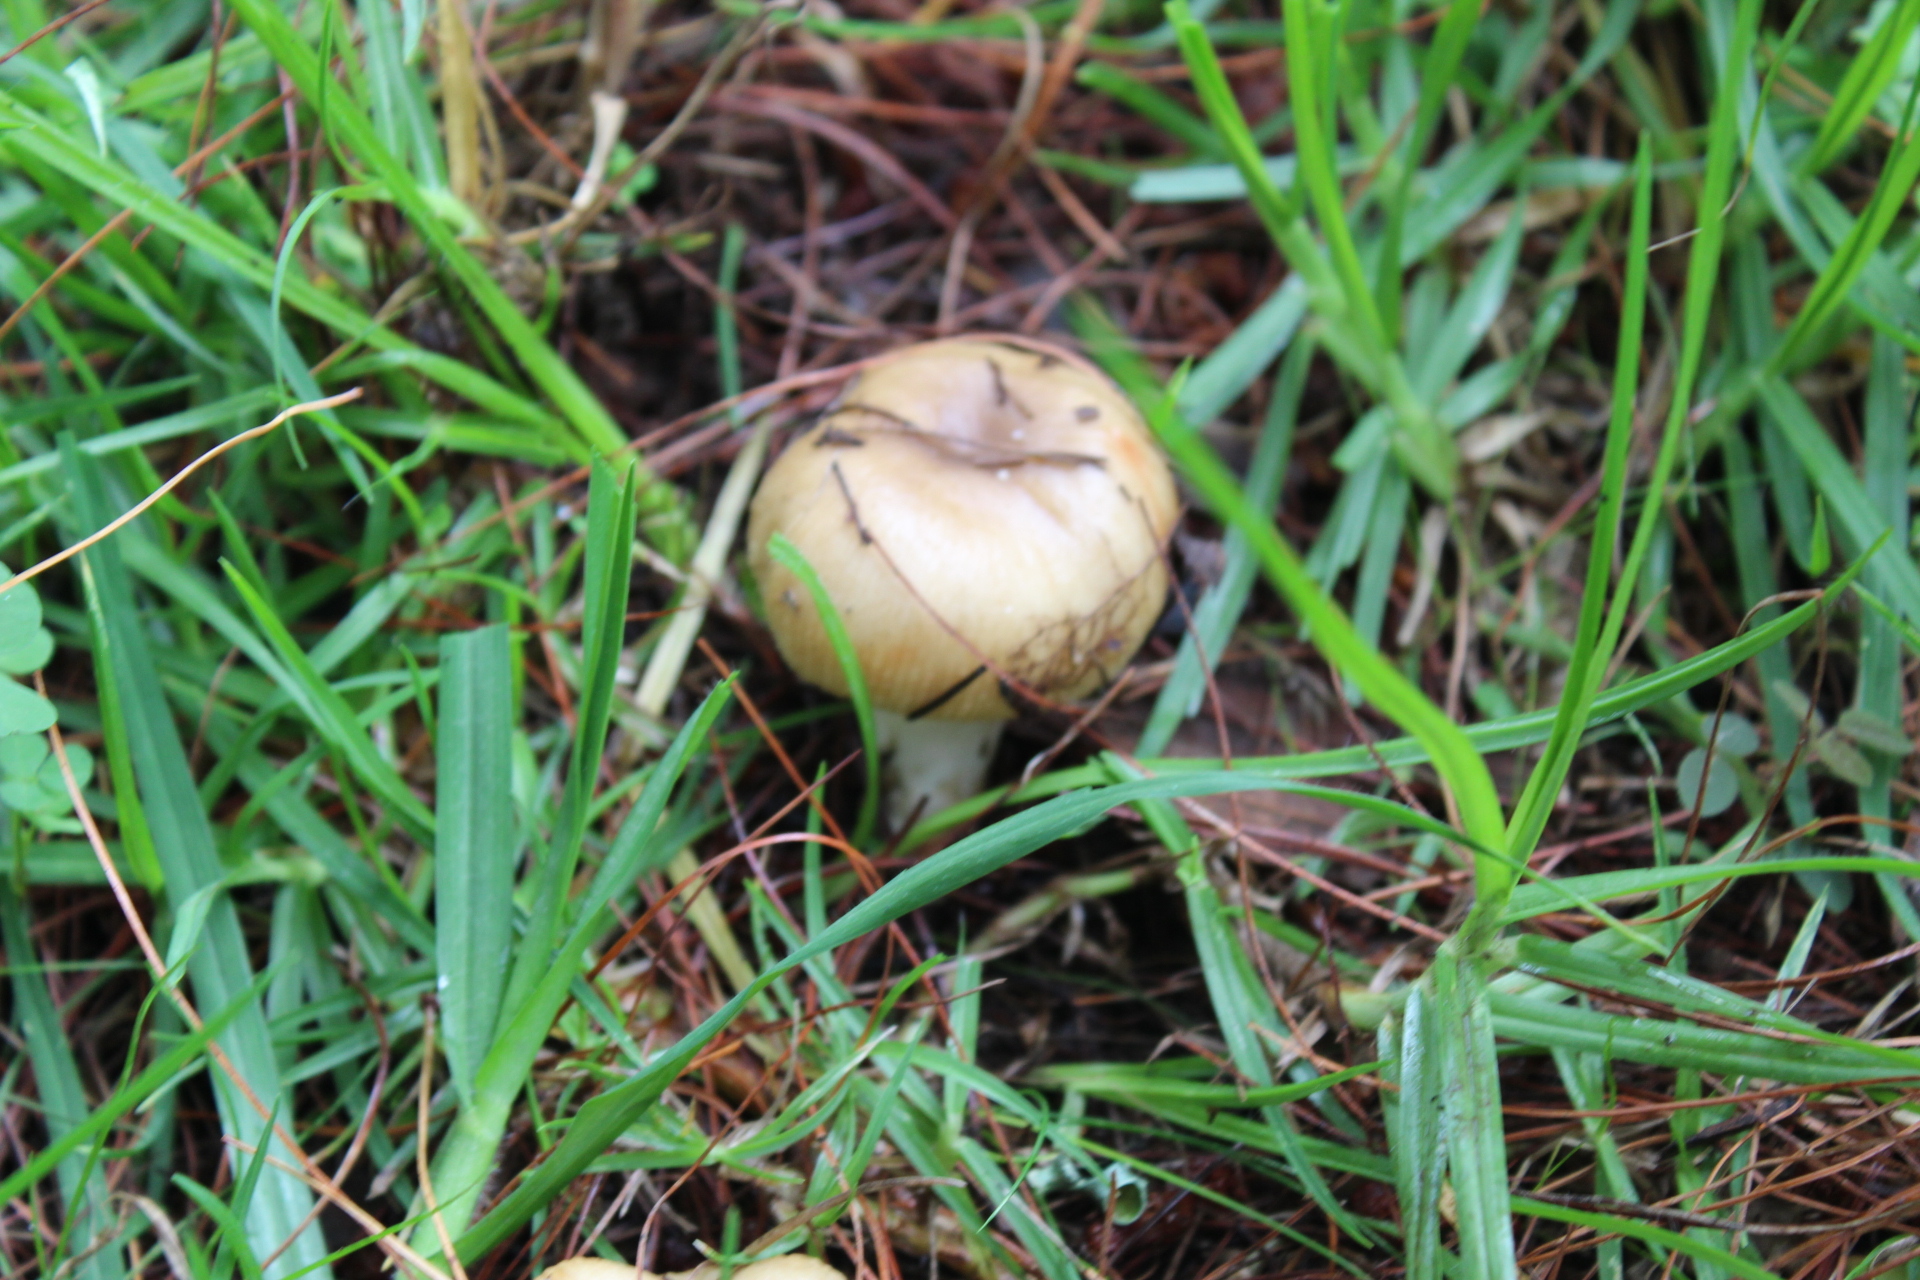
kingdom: Fungi
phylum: Basidiomycota
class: Agaricomycetes
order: Russulales
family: Russulaceae
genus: Russula
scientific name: Russula amoenolens
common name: Camembert brittlegill
